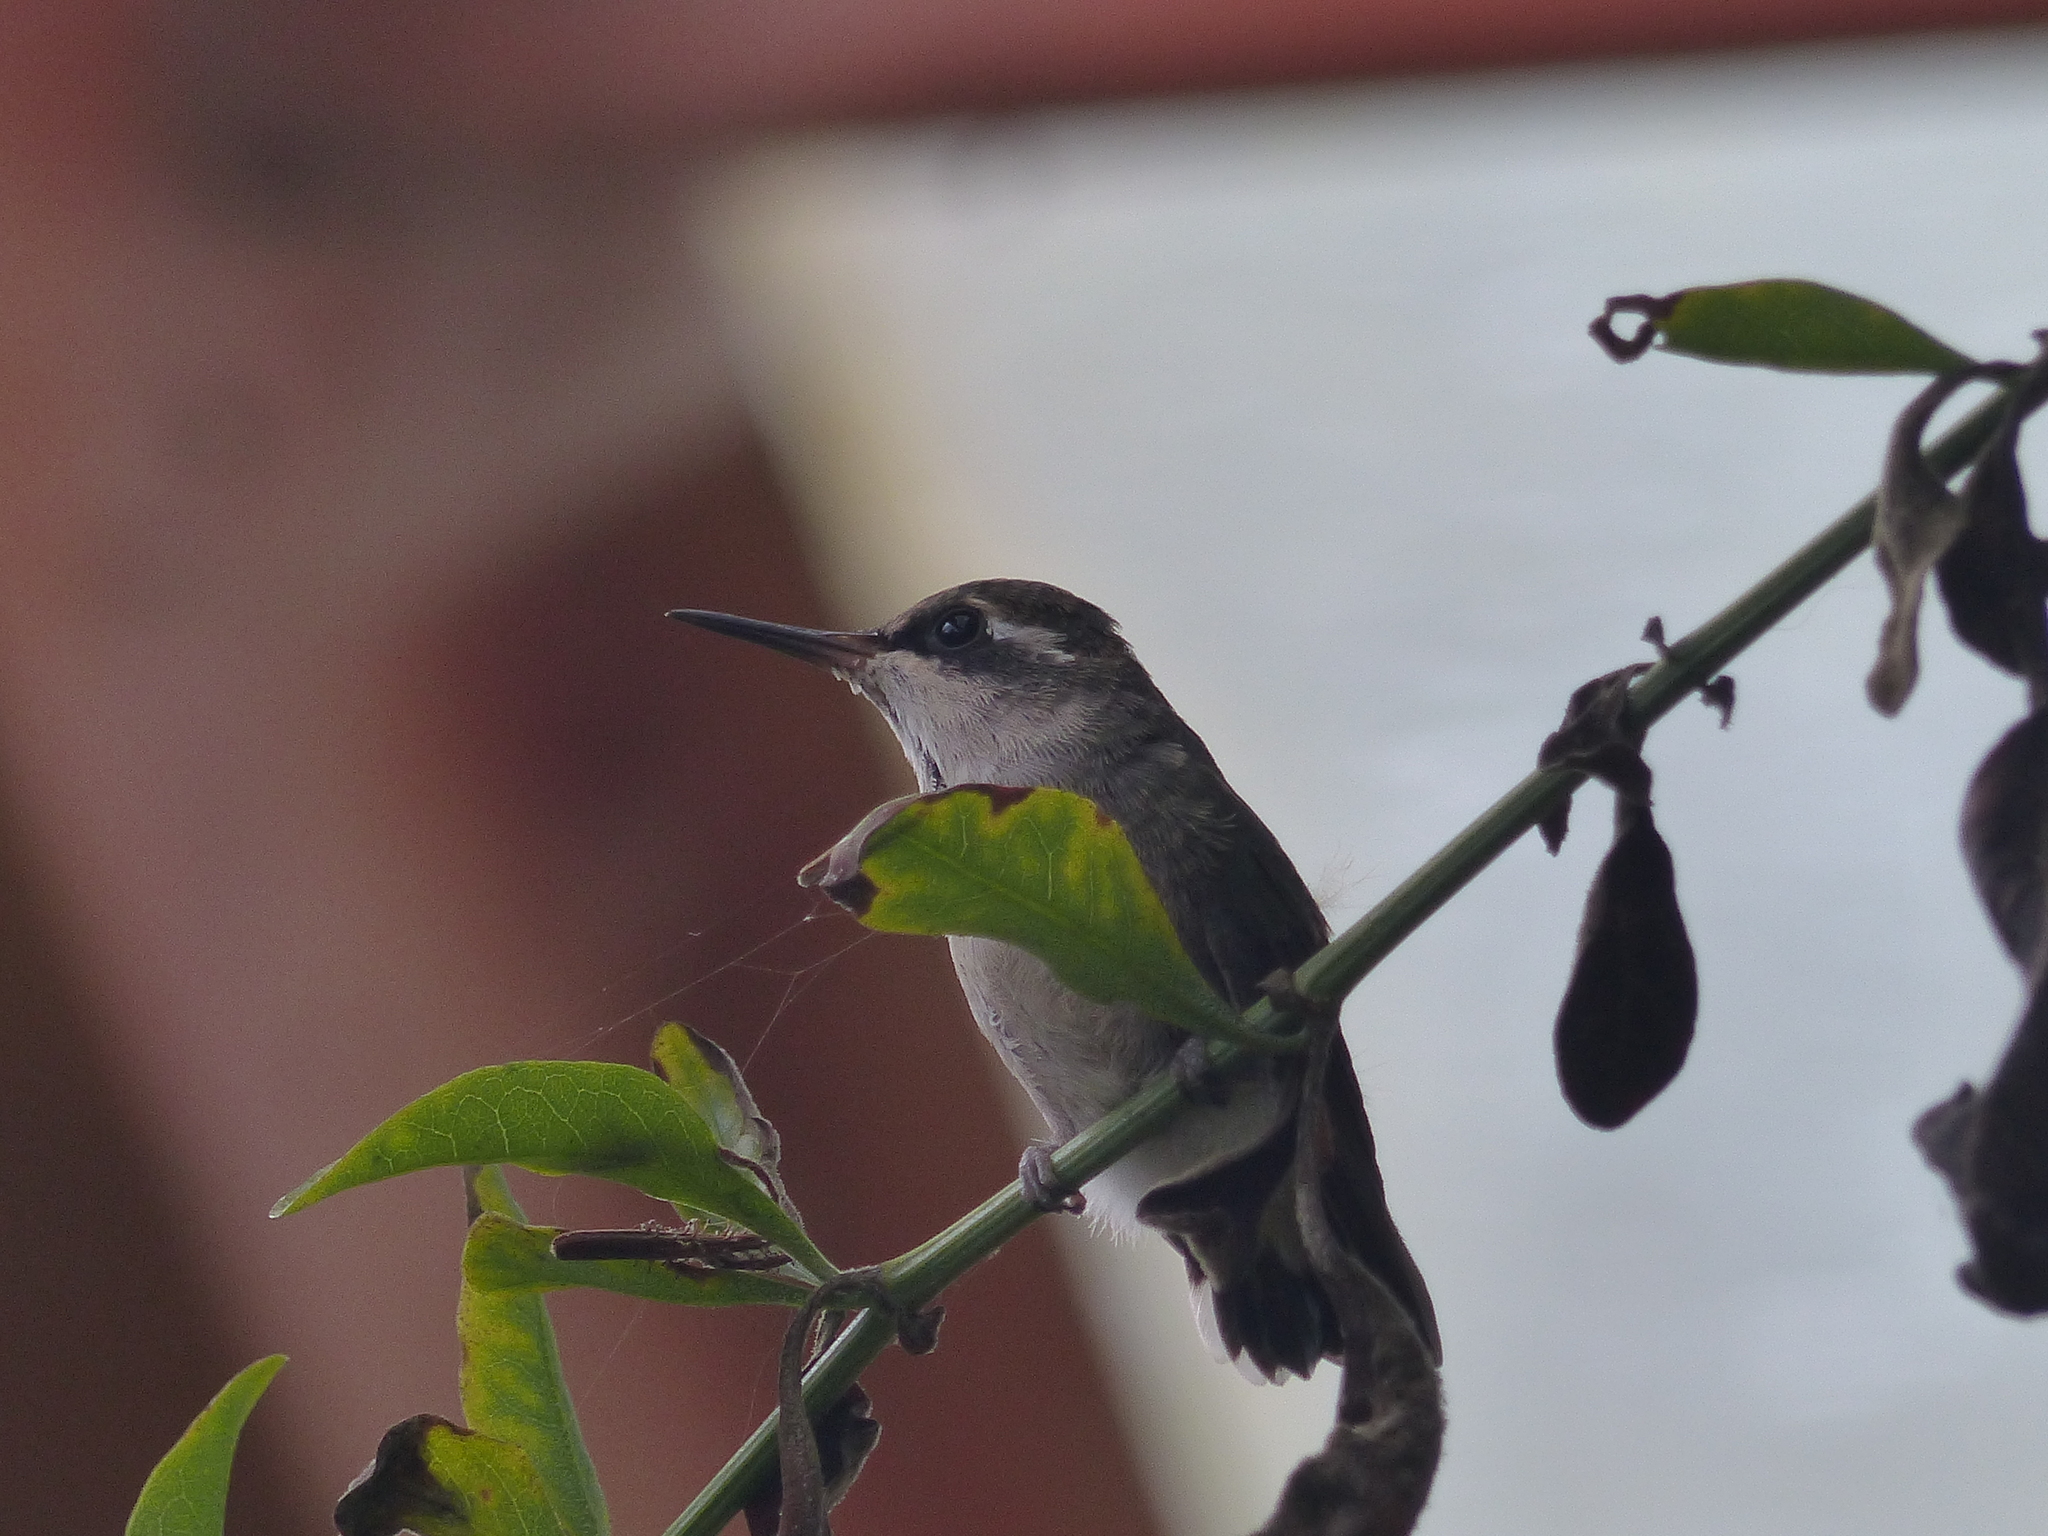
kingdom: Animalia
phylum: Chordata
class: Aves
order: Apodiformes
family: Trochilidae
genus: Chlorostilbon
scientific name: Chlorostilbon poortmani
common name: Short-tailed emerald
